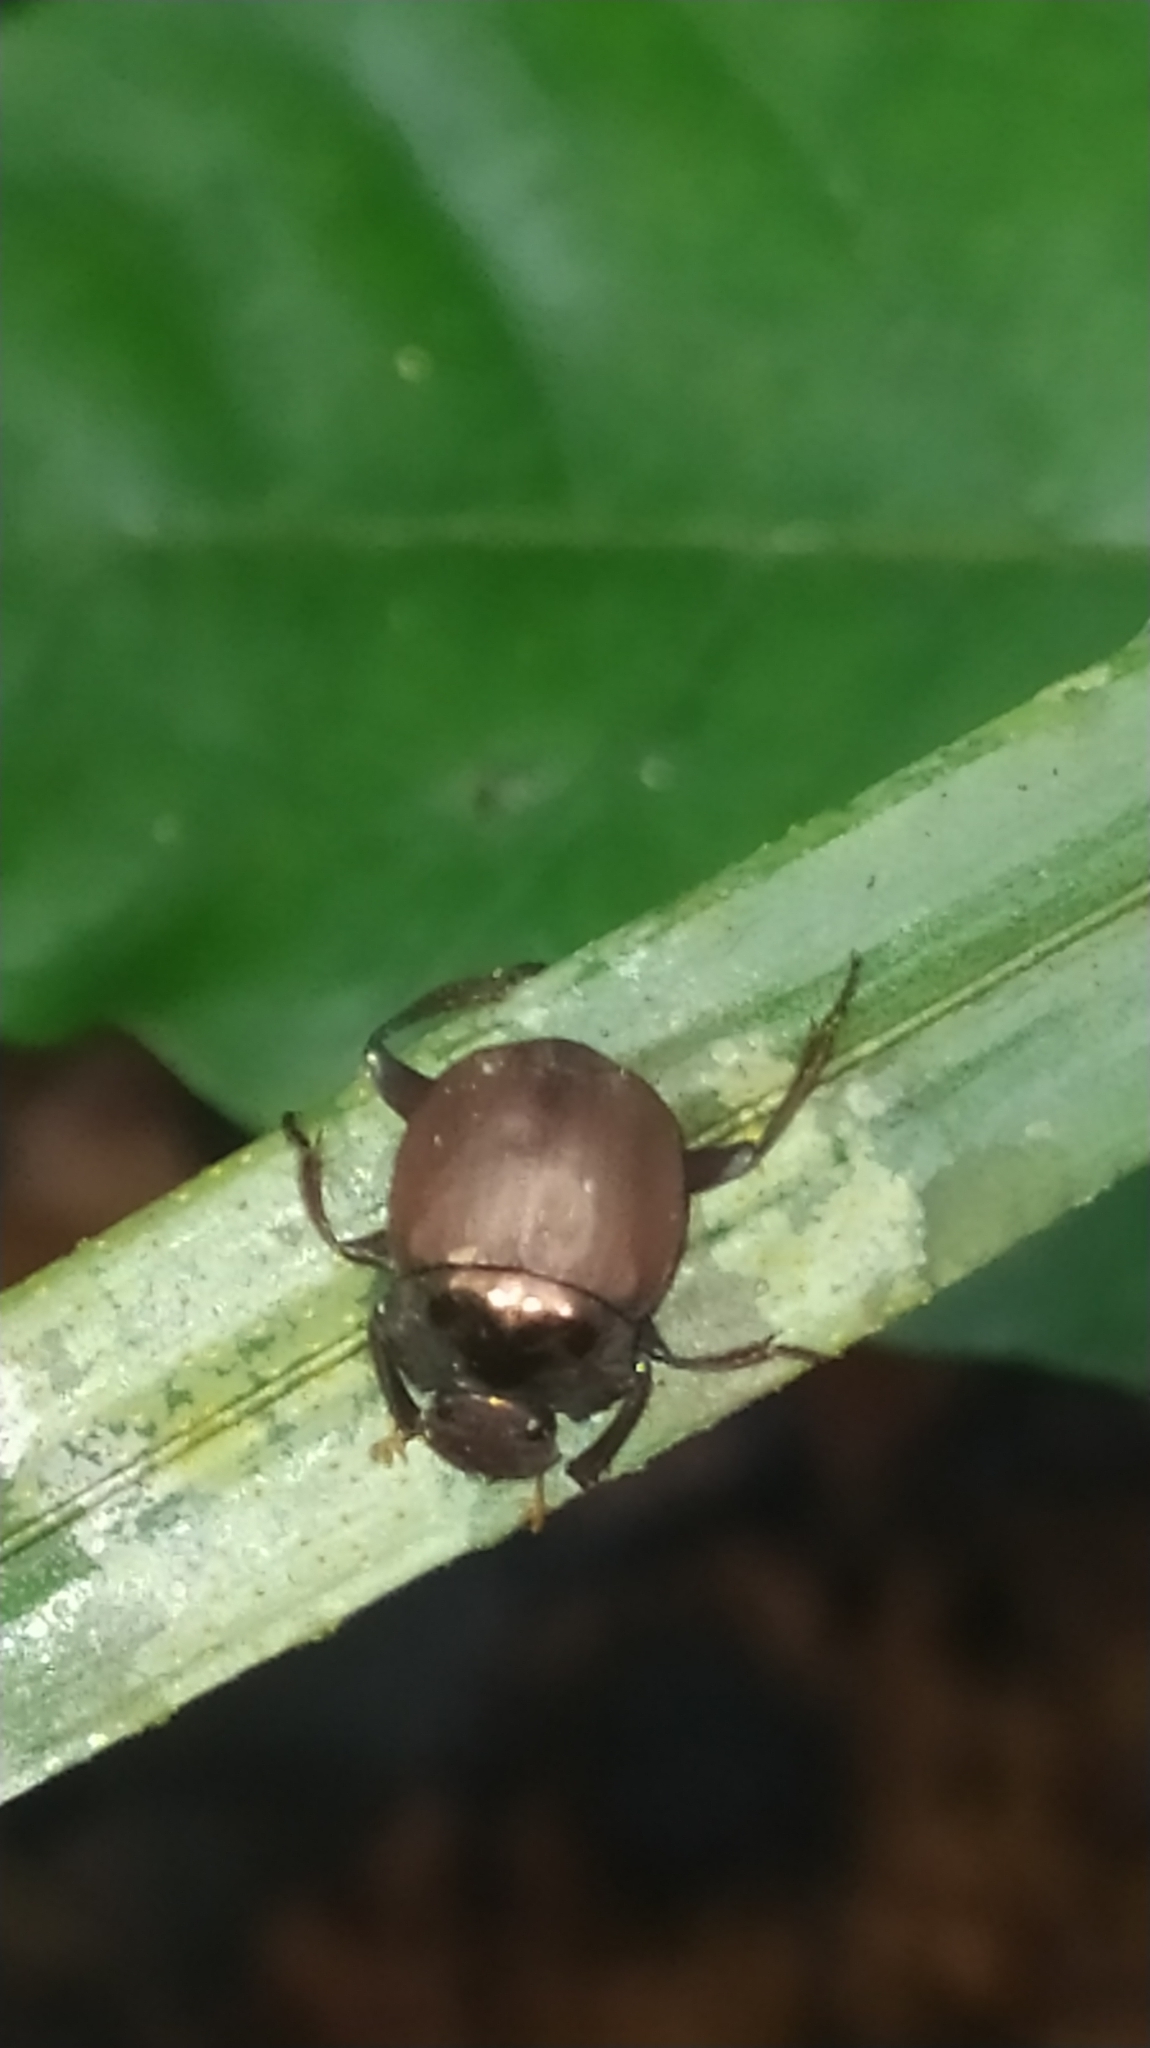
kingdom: Animalia
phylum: Arthropoda
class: Insecta
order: Coleoptera
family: Scarabaeidae
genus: Hansreia
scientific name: Hansreia affinis
